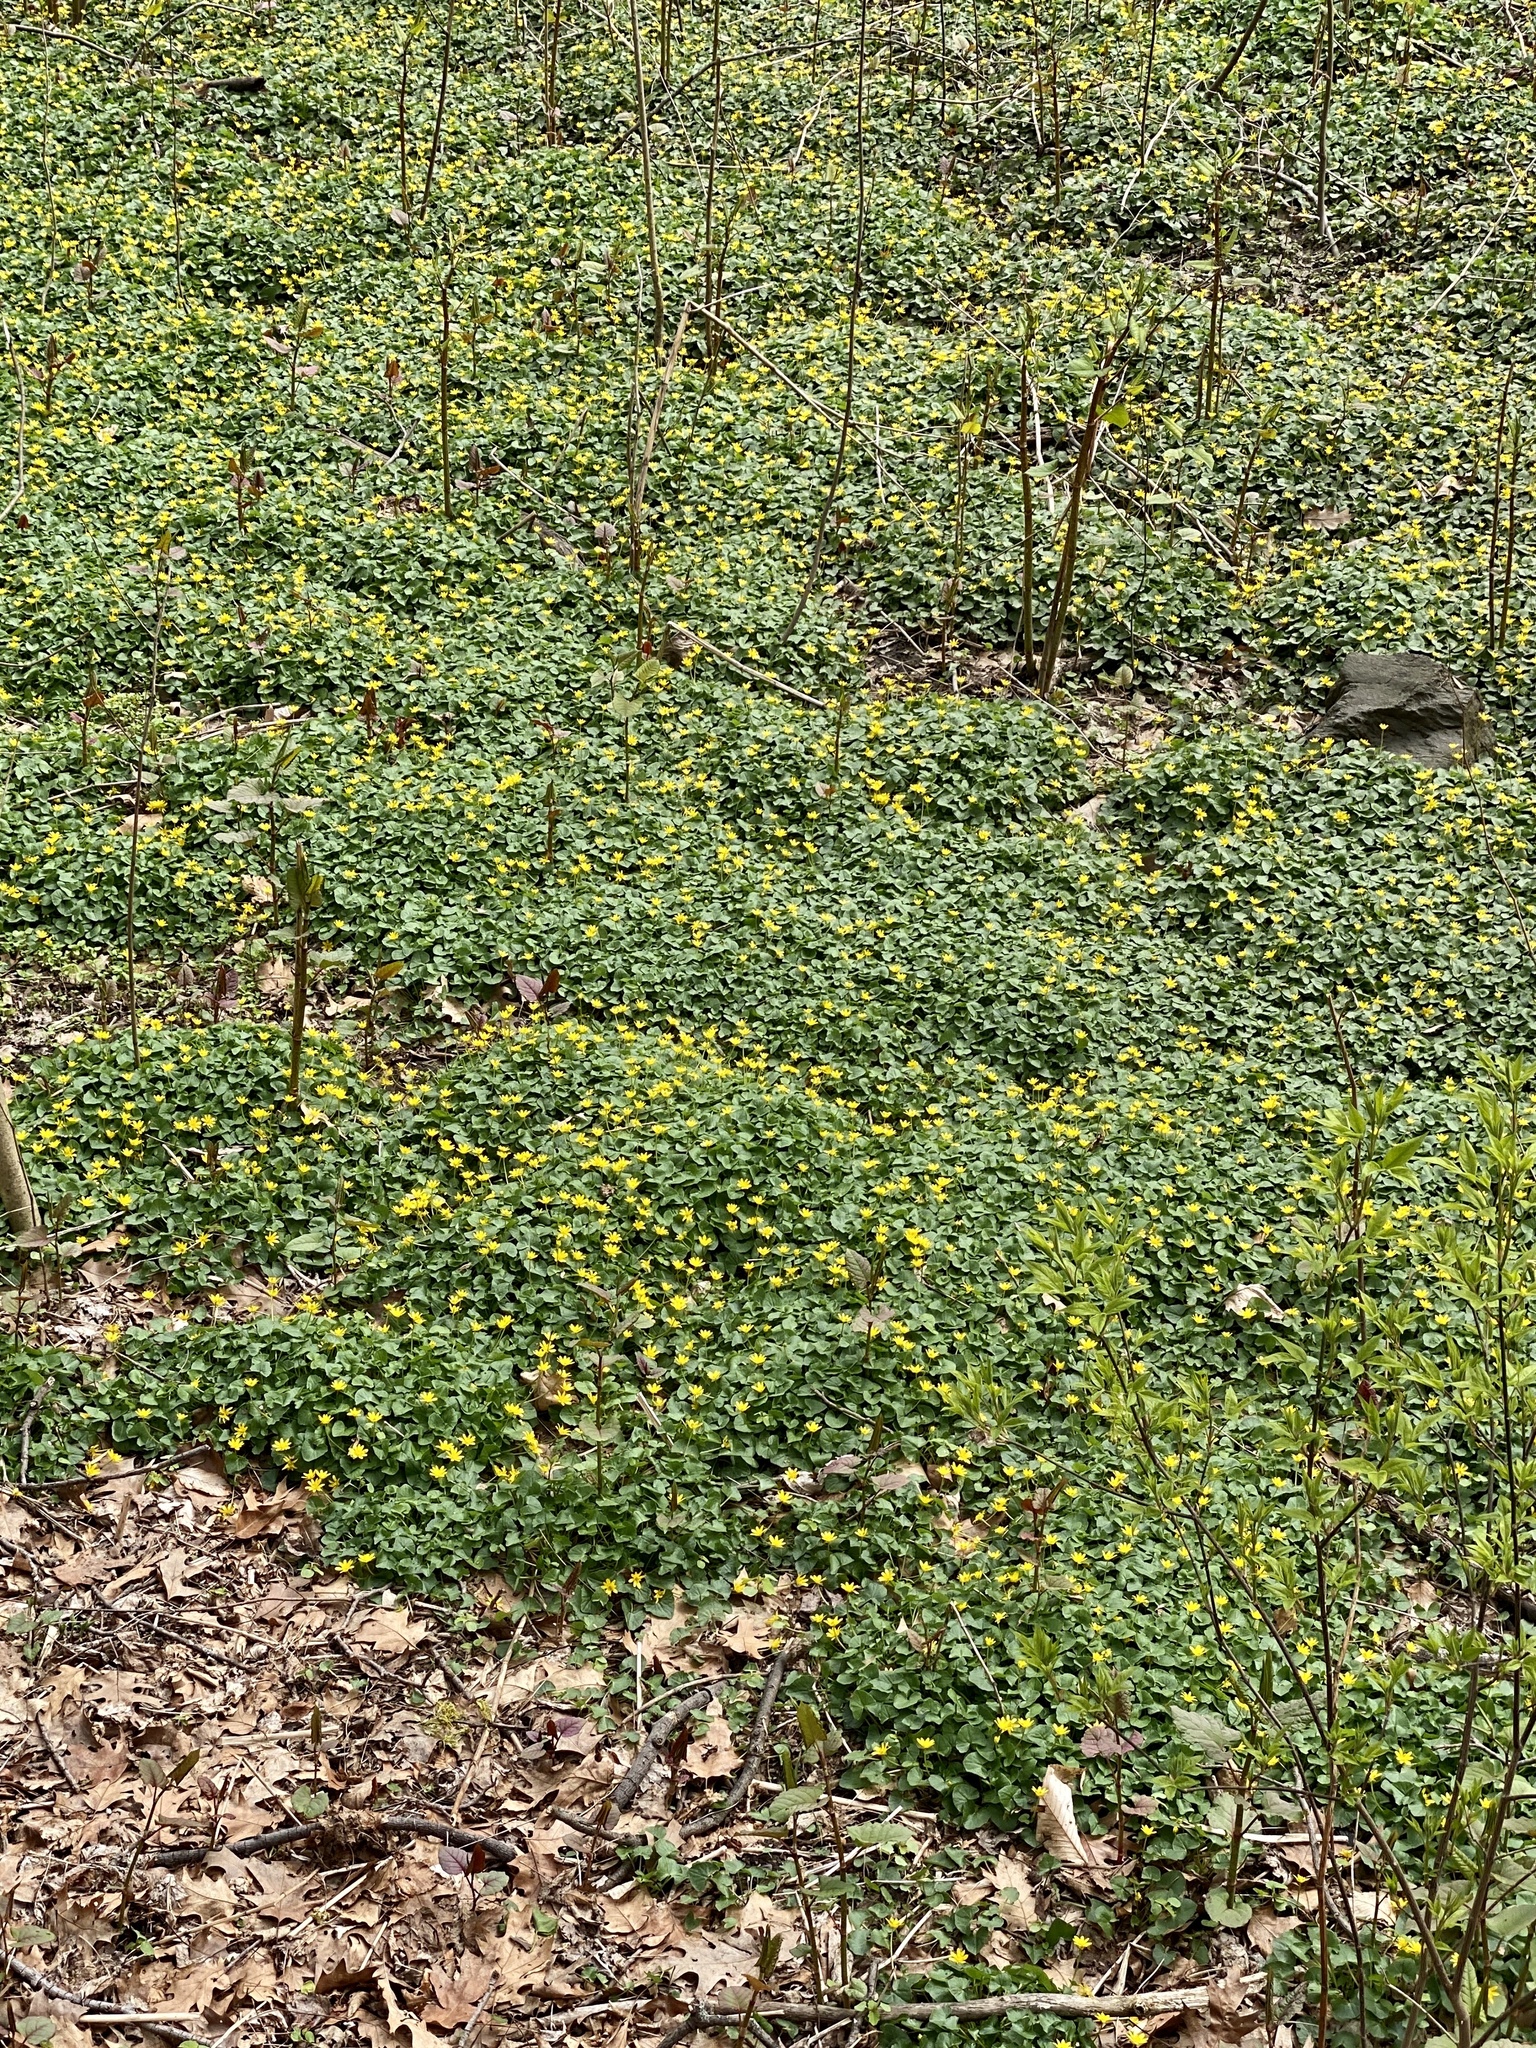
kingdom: Plantae
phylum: Tracheophyta
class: Magnoliopsida
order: Ranunculales
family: Ranunculaceae
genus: Ficaria
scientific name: Ficaria verna
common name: Lesser celandine
